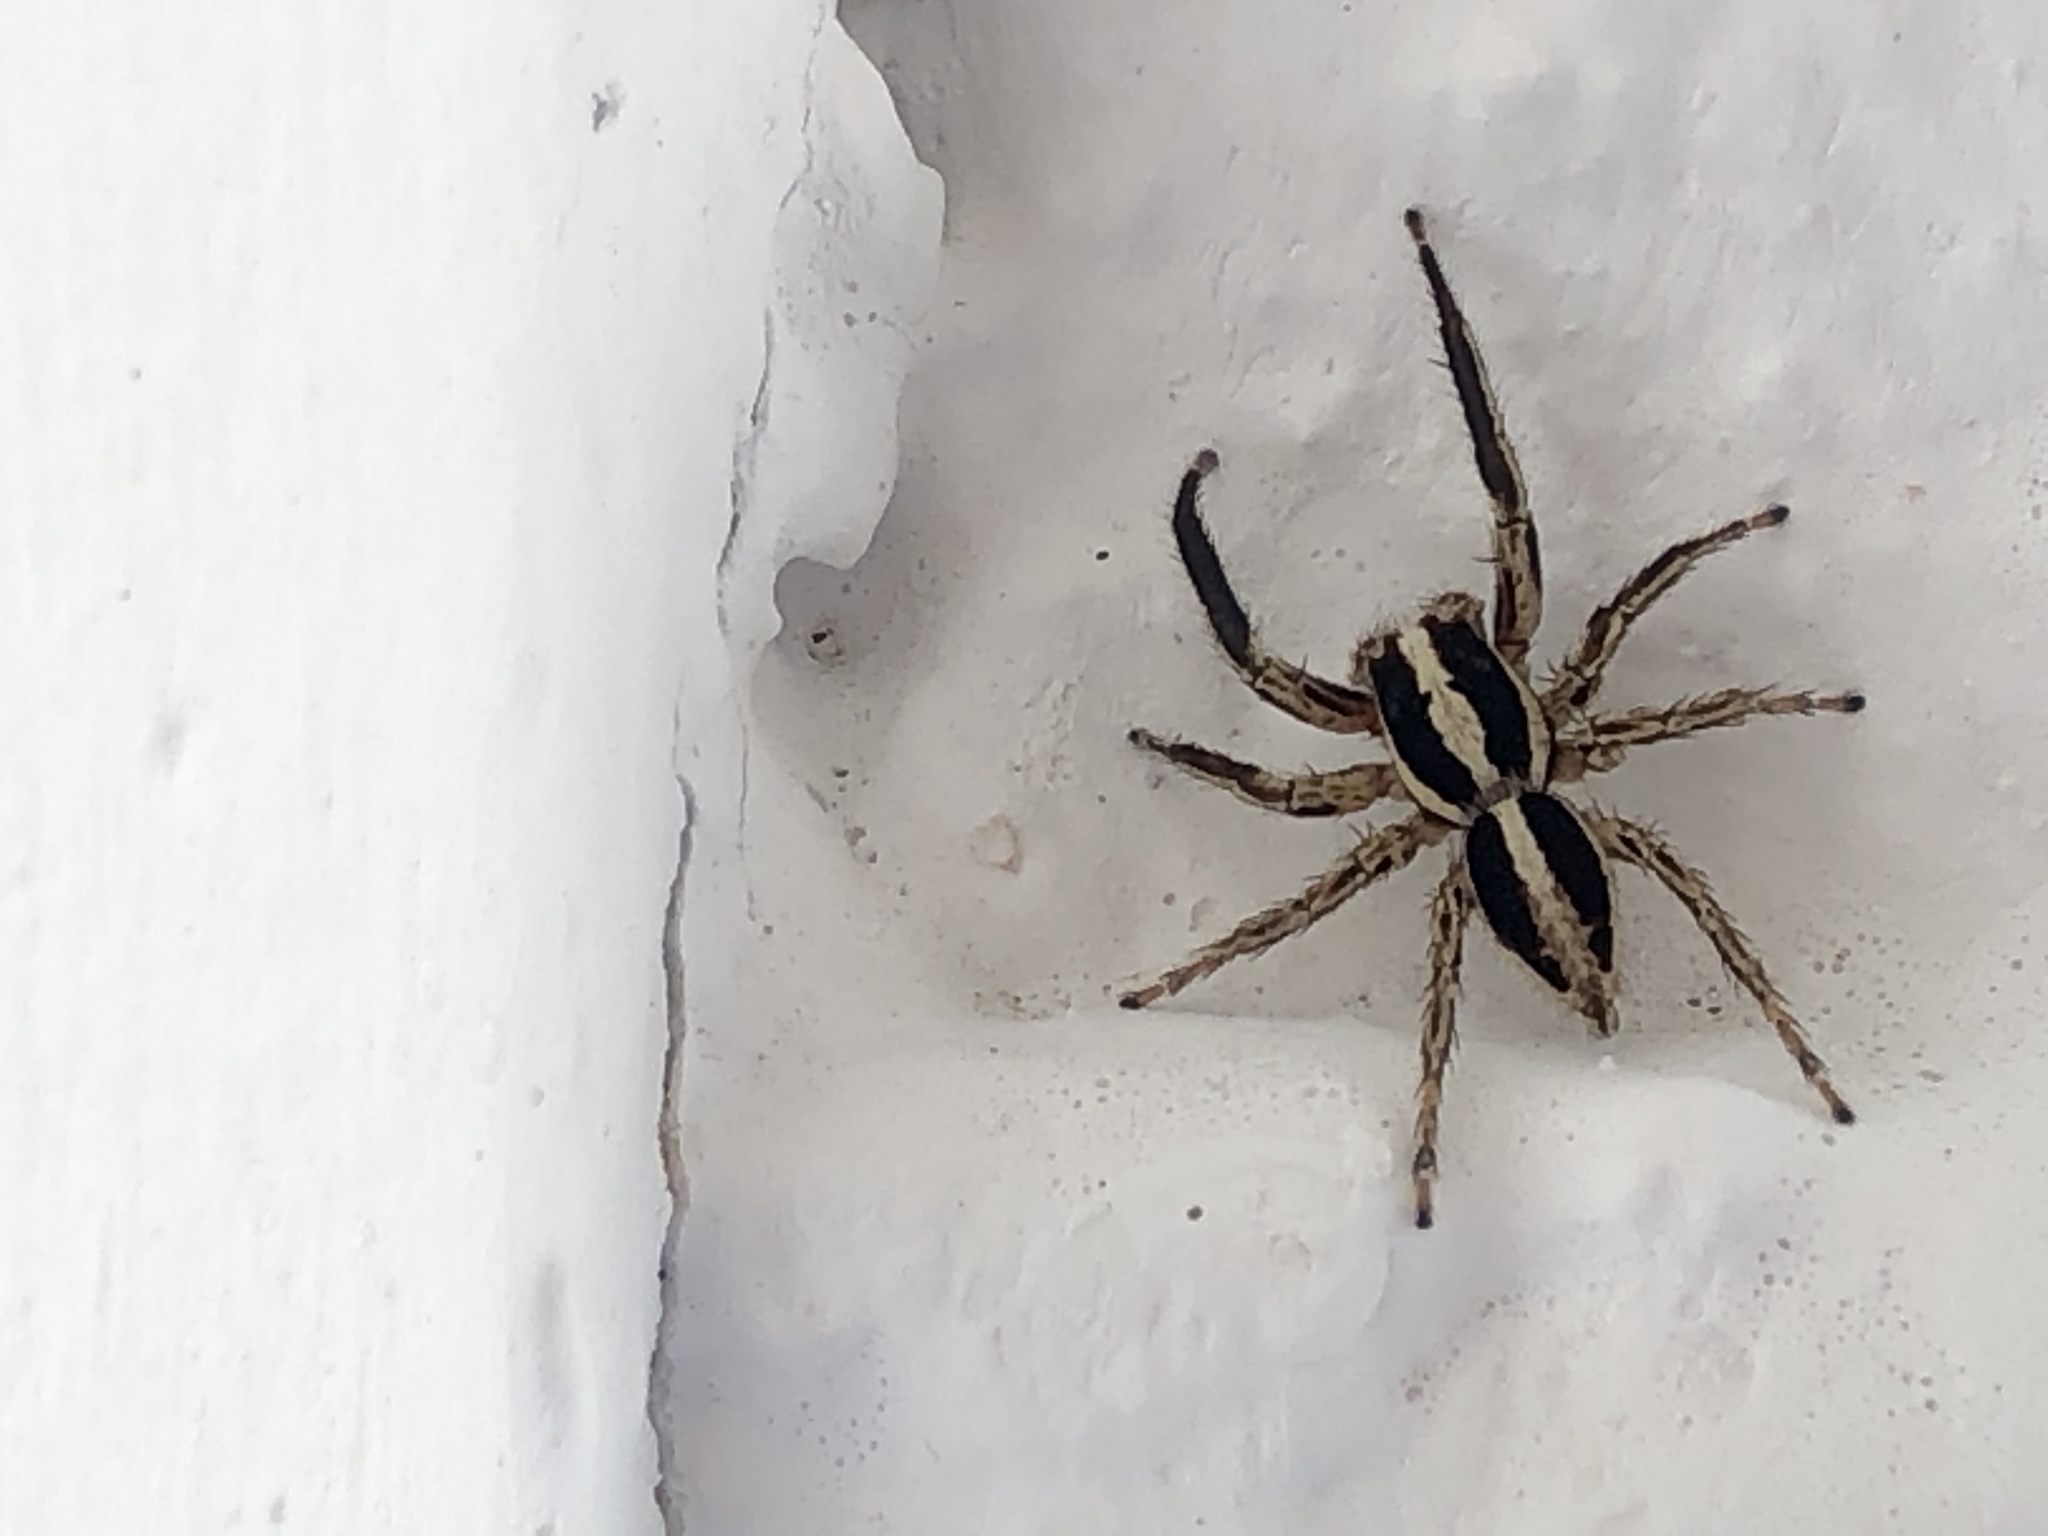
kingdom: Animalia
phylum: Arthropoda
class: Arachnida
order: Araneae
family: Salticidae
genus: Plexippus
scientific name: Plexippus paykulli
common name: Pantropical jumper
